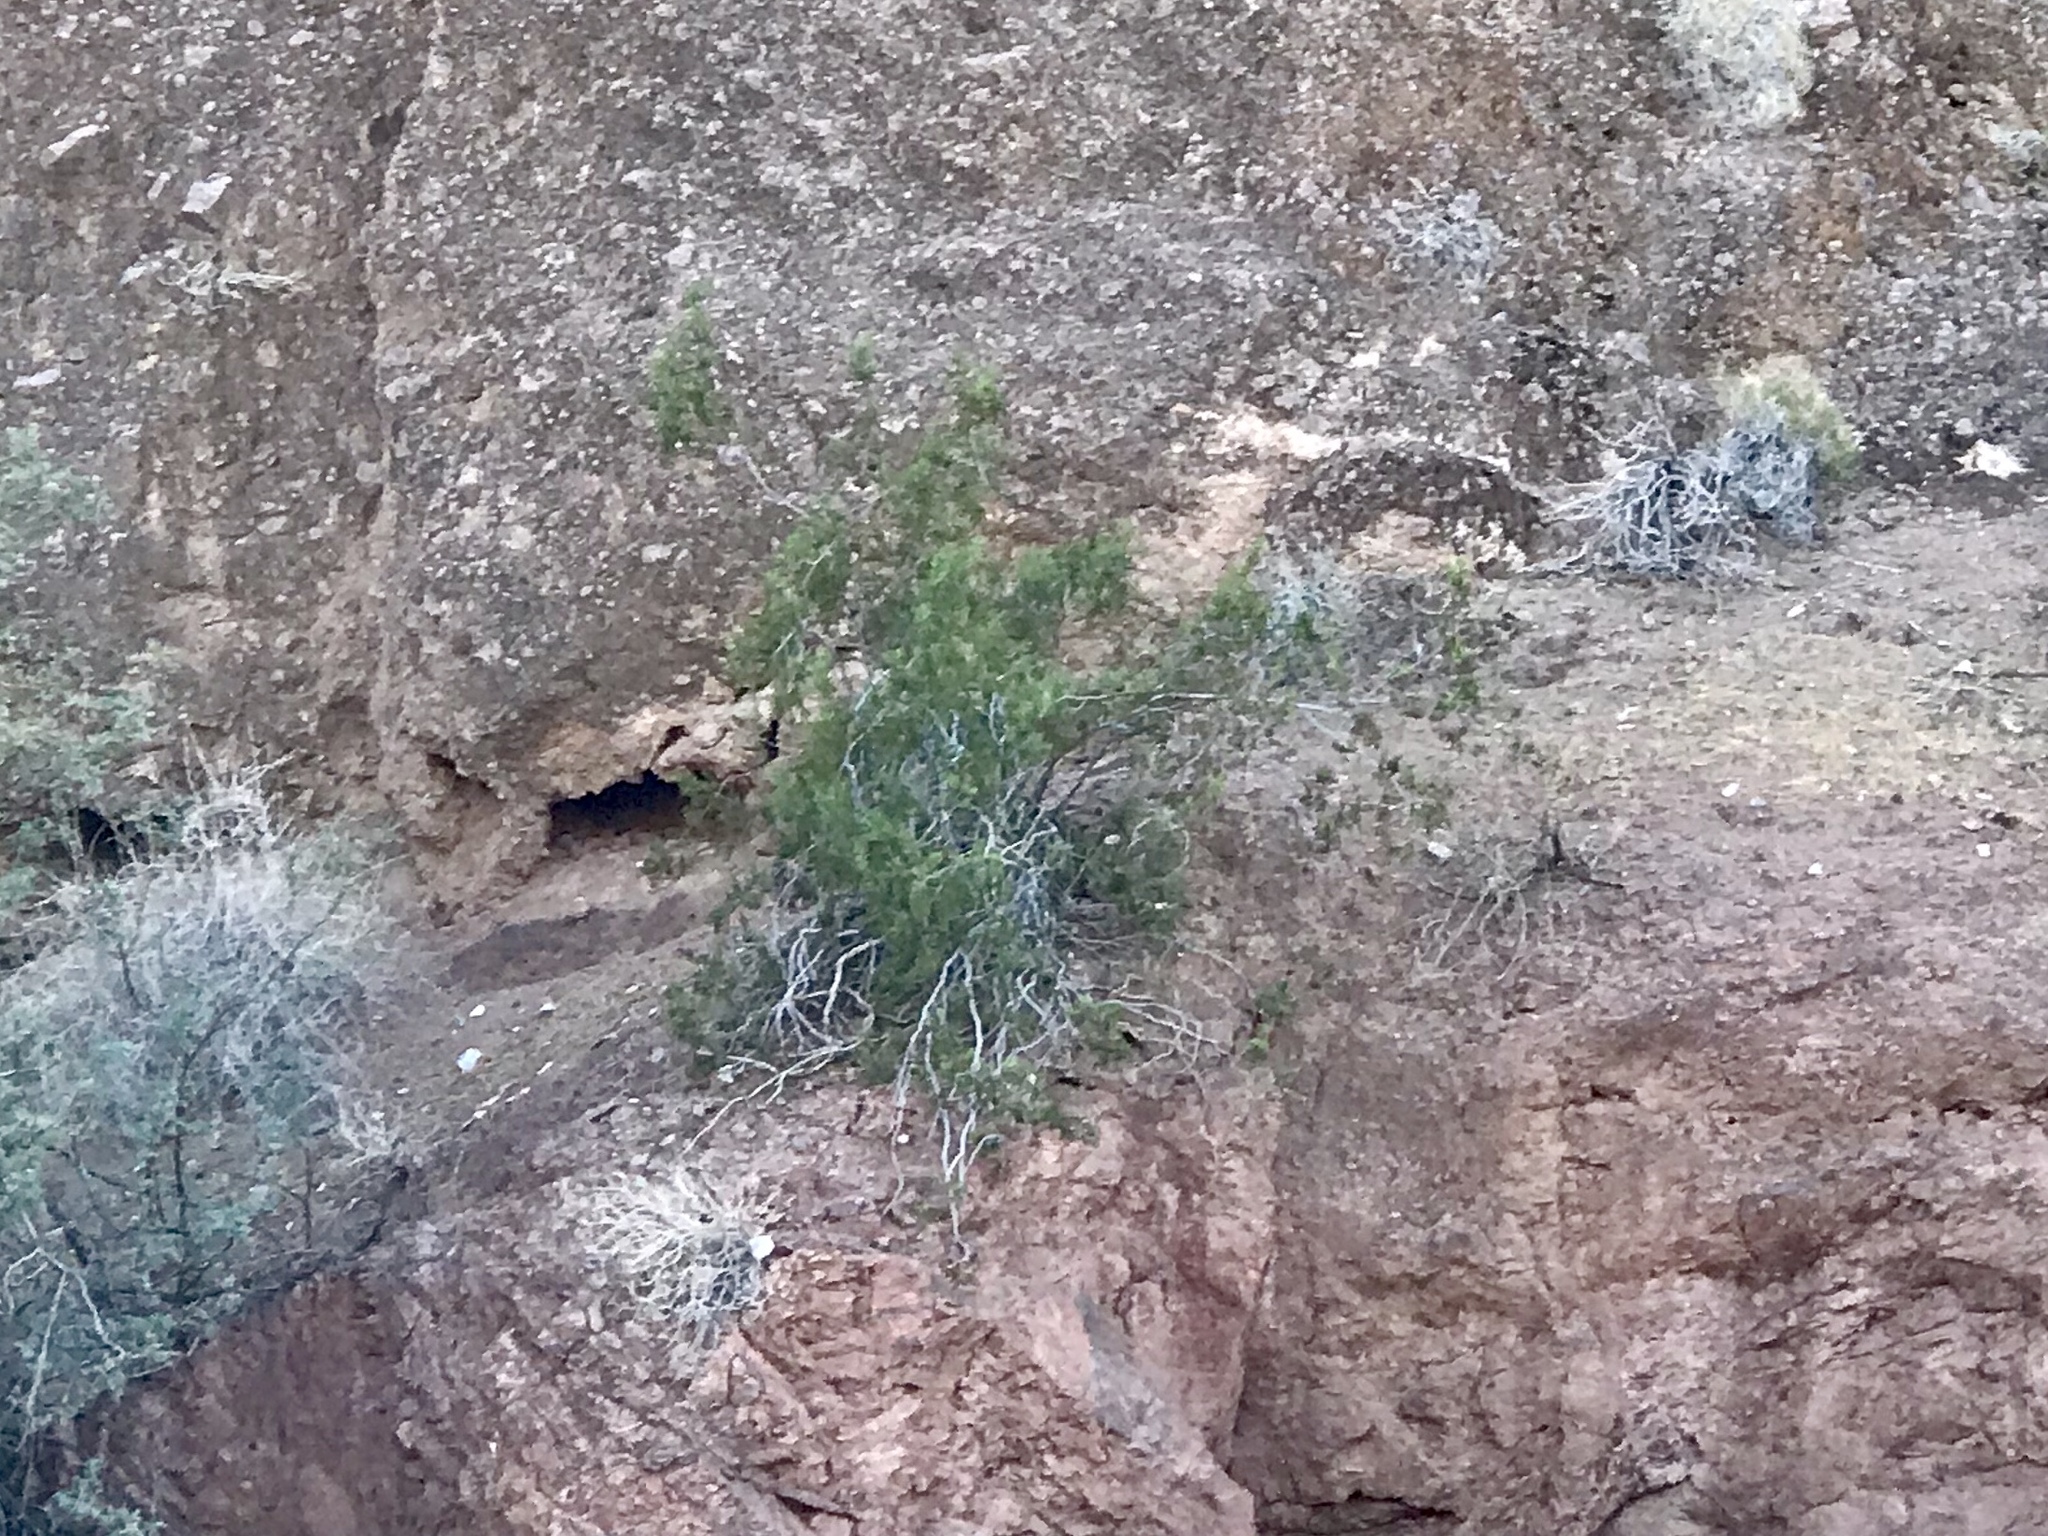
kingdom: Plantae
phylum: Tracheophyta
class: Magnoliopsida
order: Zygophyllales
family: Zygophyllaceae
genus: Larrea
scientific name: Larrea tridentata
